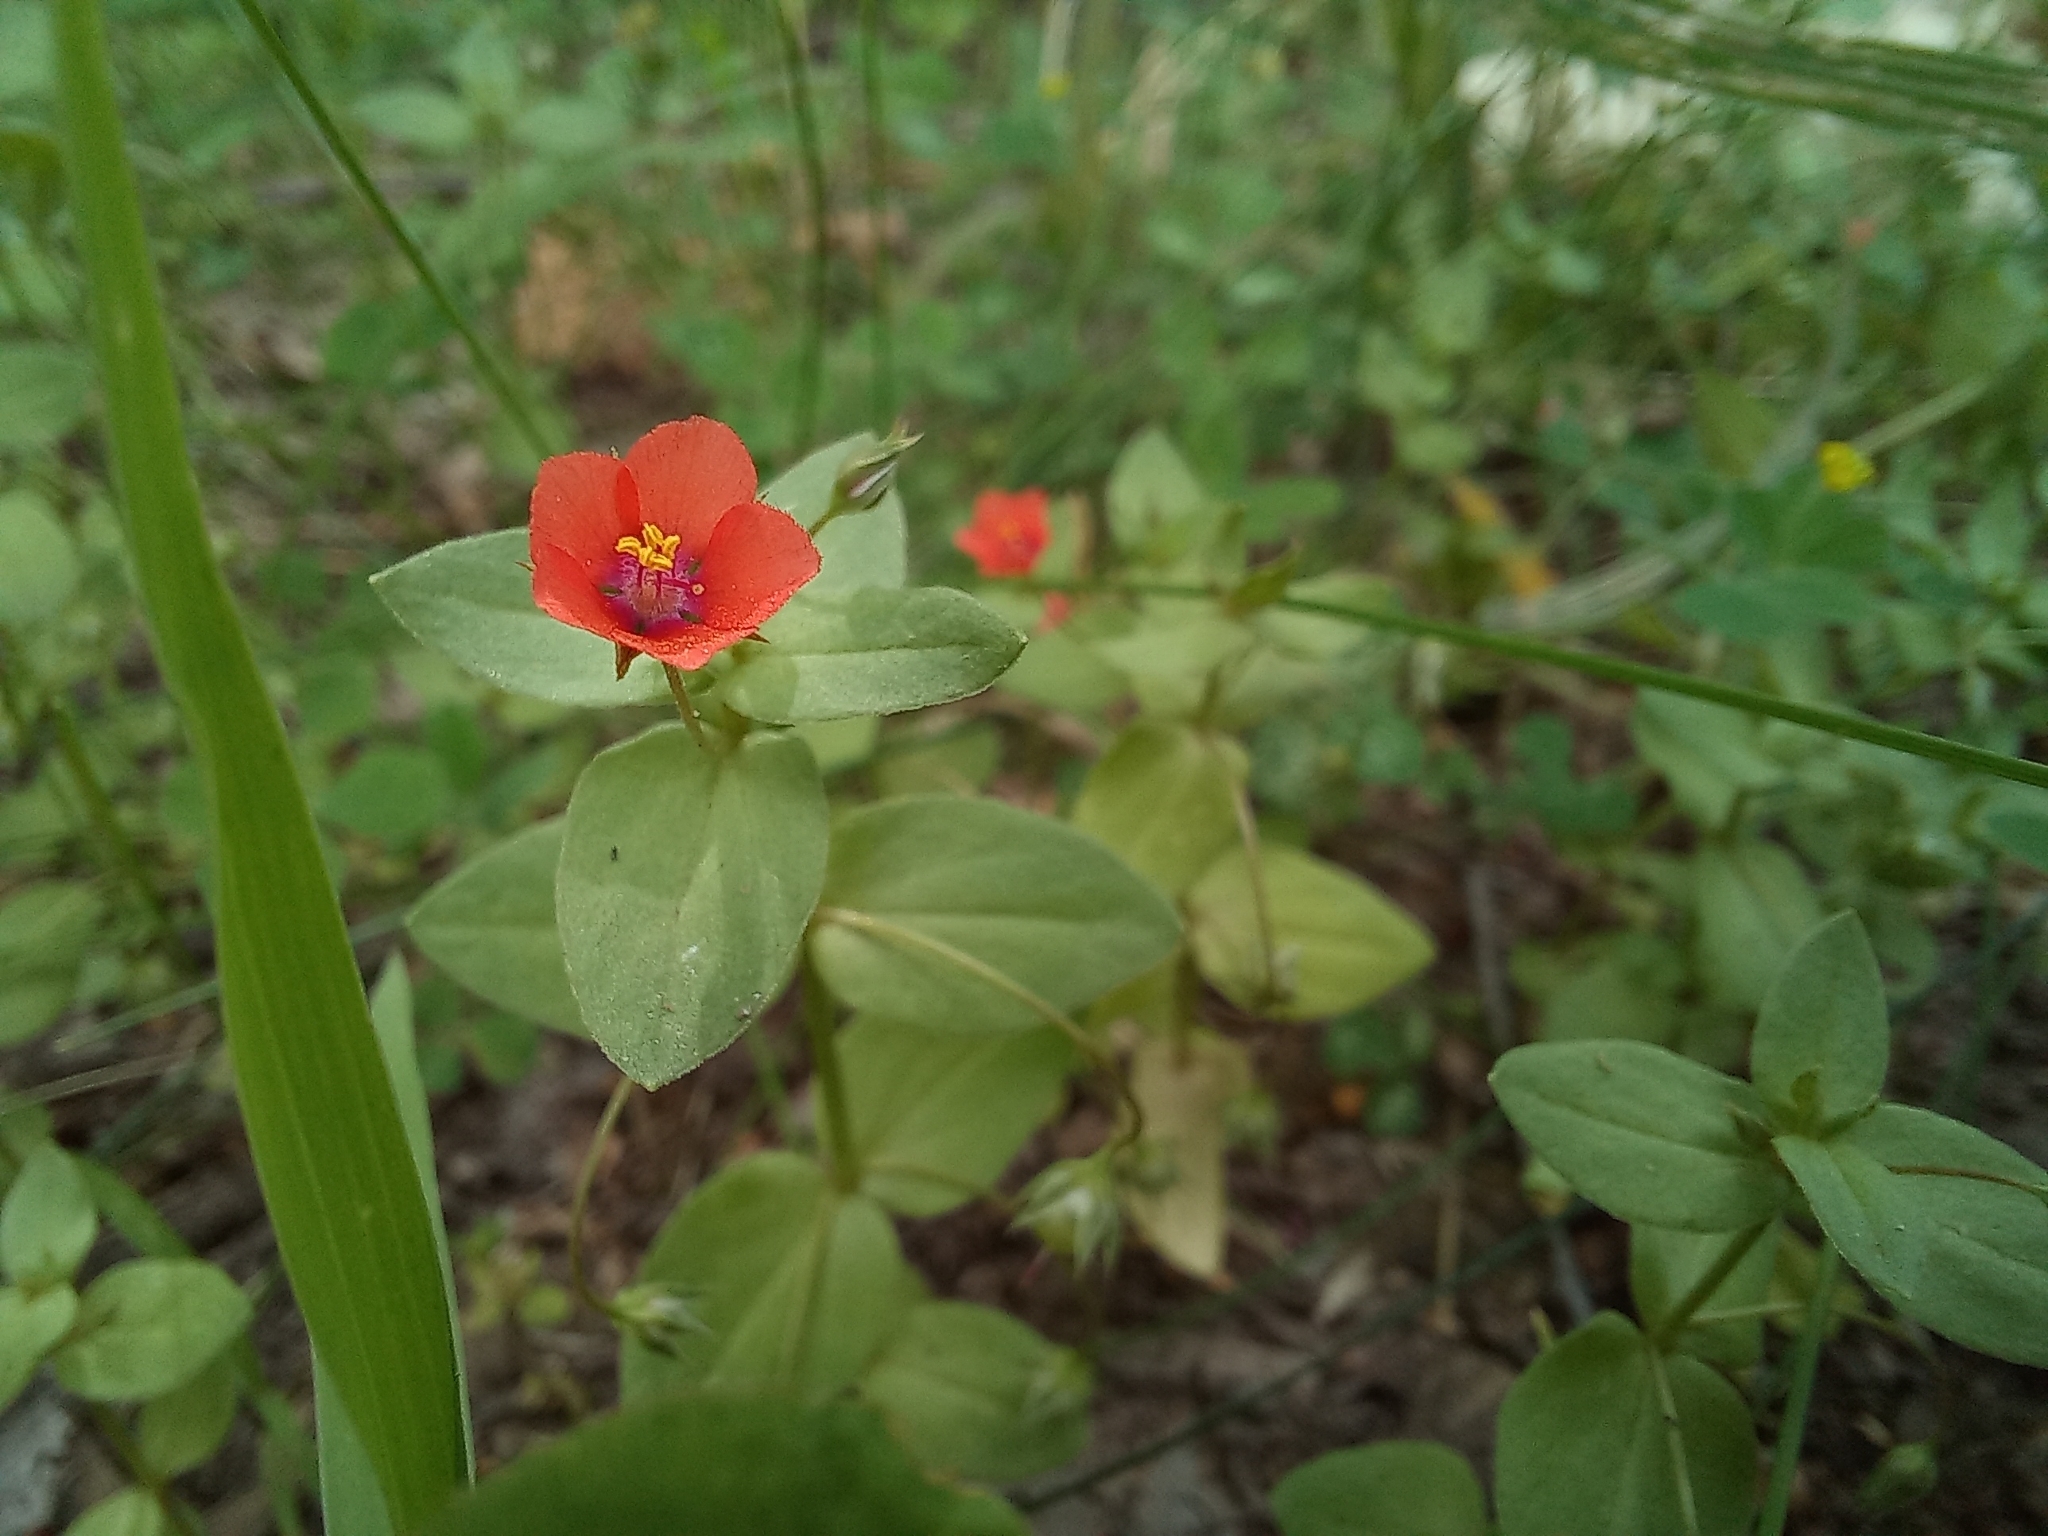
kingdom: Plantae
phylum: Tracheophyta
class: Magnoliopsida
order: Ericales
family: Primulaceae
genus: Lysimachia
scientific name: Lysimachia arvensis
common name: Scarlet pimpernel
